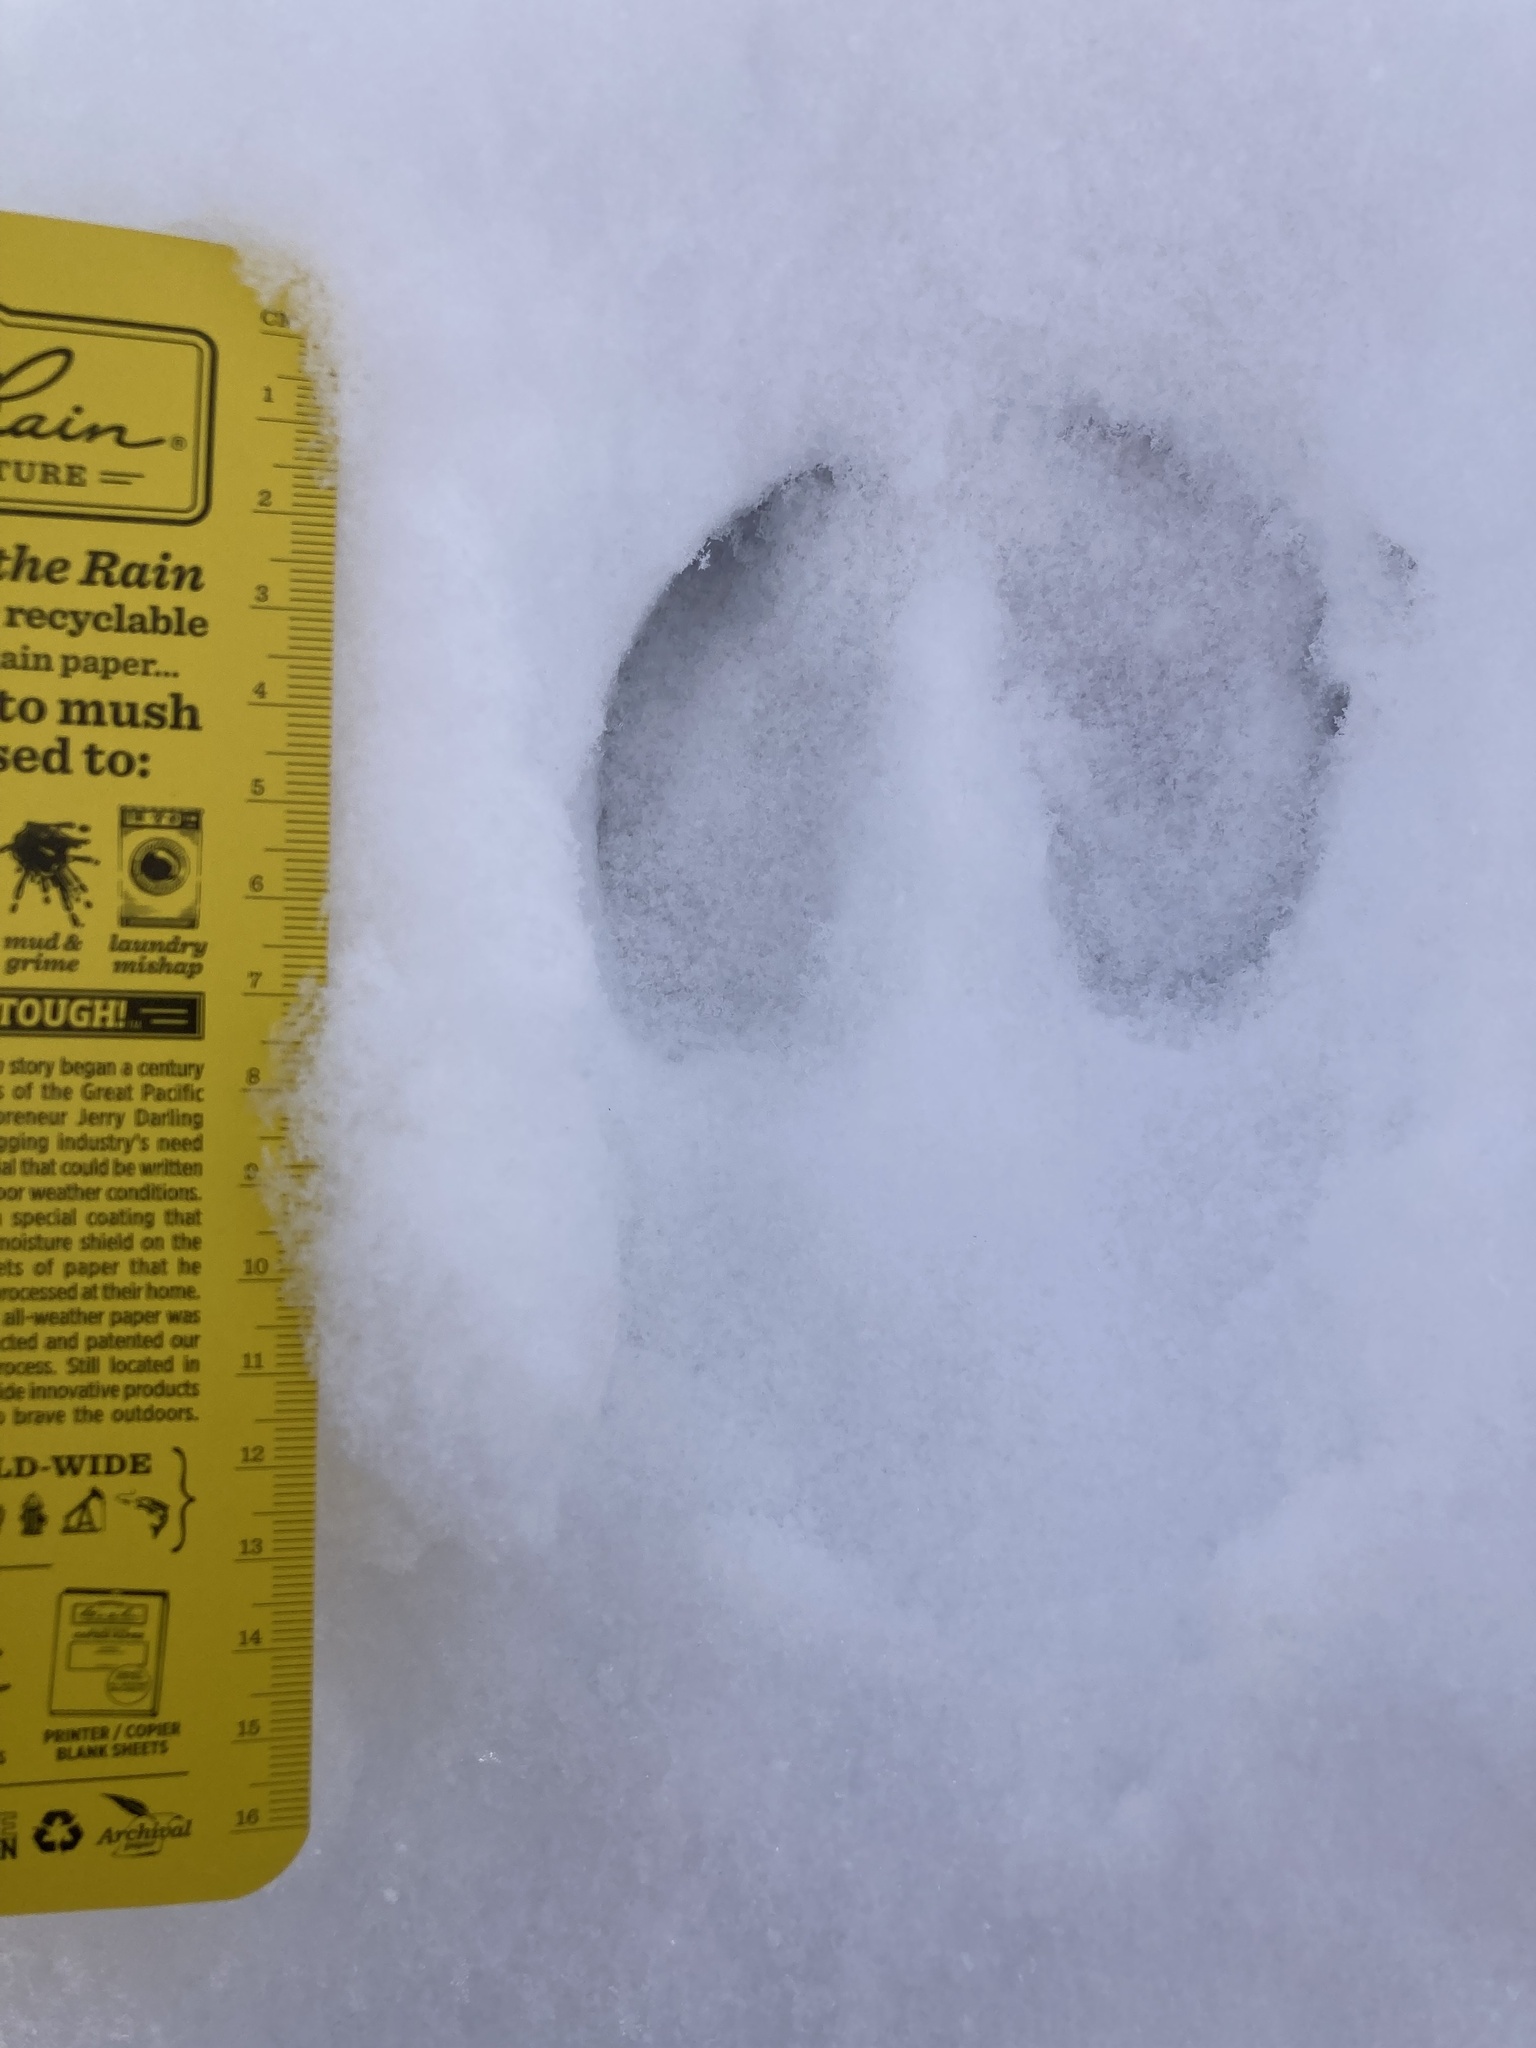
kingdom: Animalia
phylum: Chordata
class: Mammalia
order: Artiodactyla
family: Cervidae
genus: Rangifer
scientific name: Rangifer tarandus
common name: Reindeer
